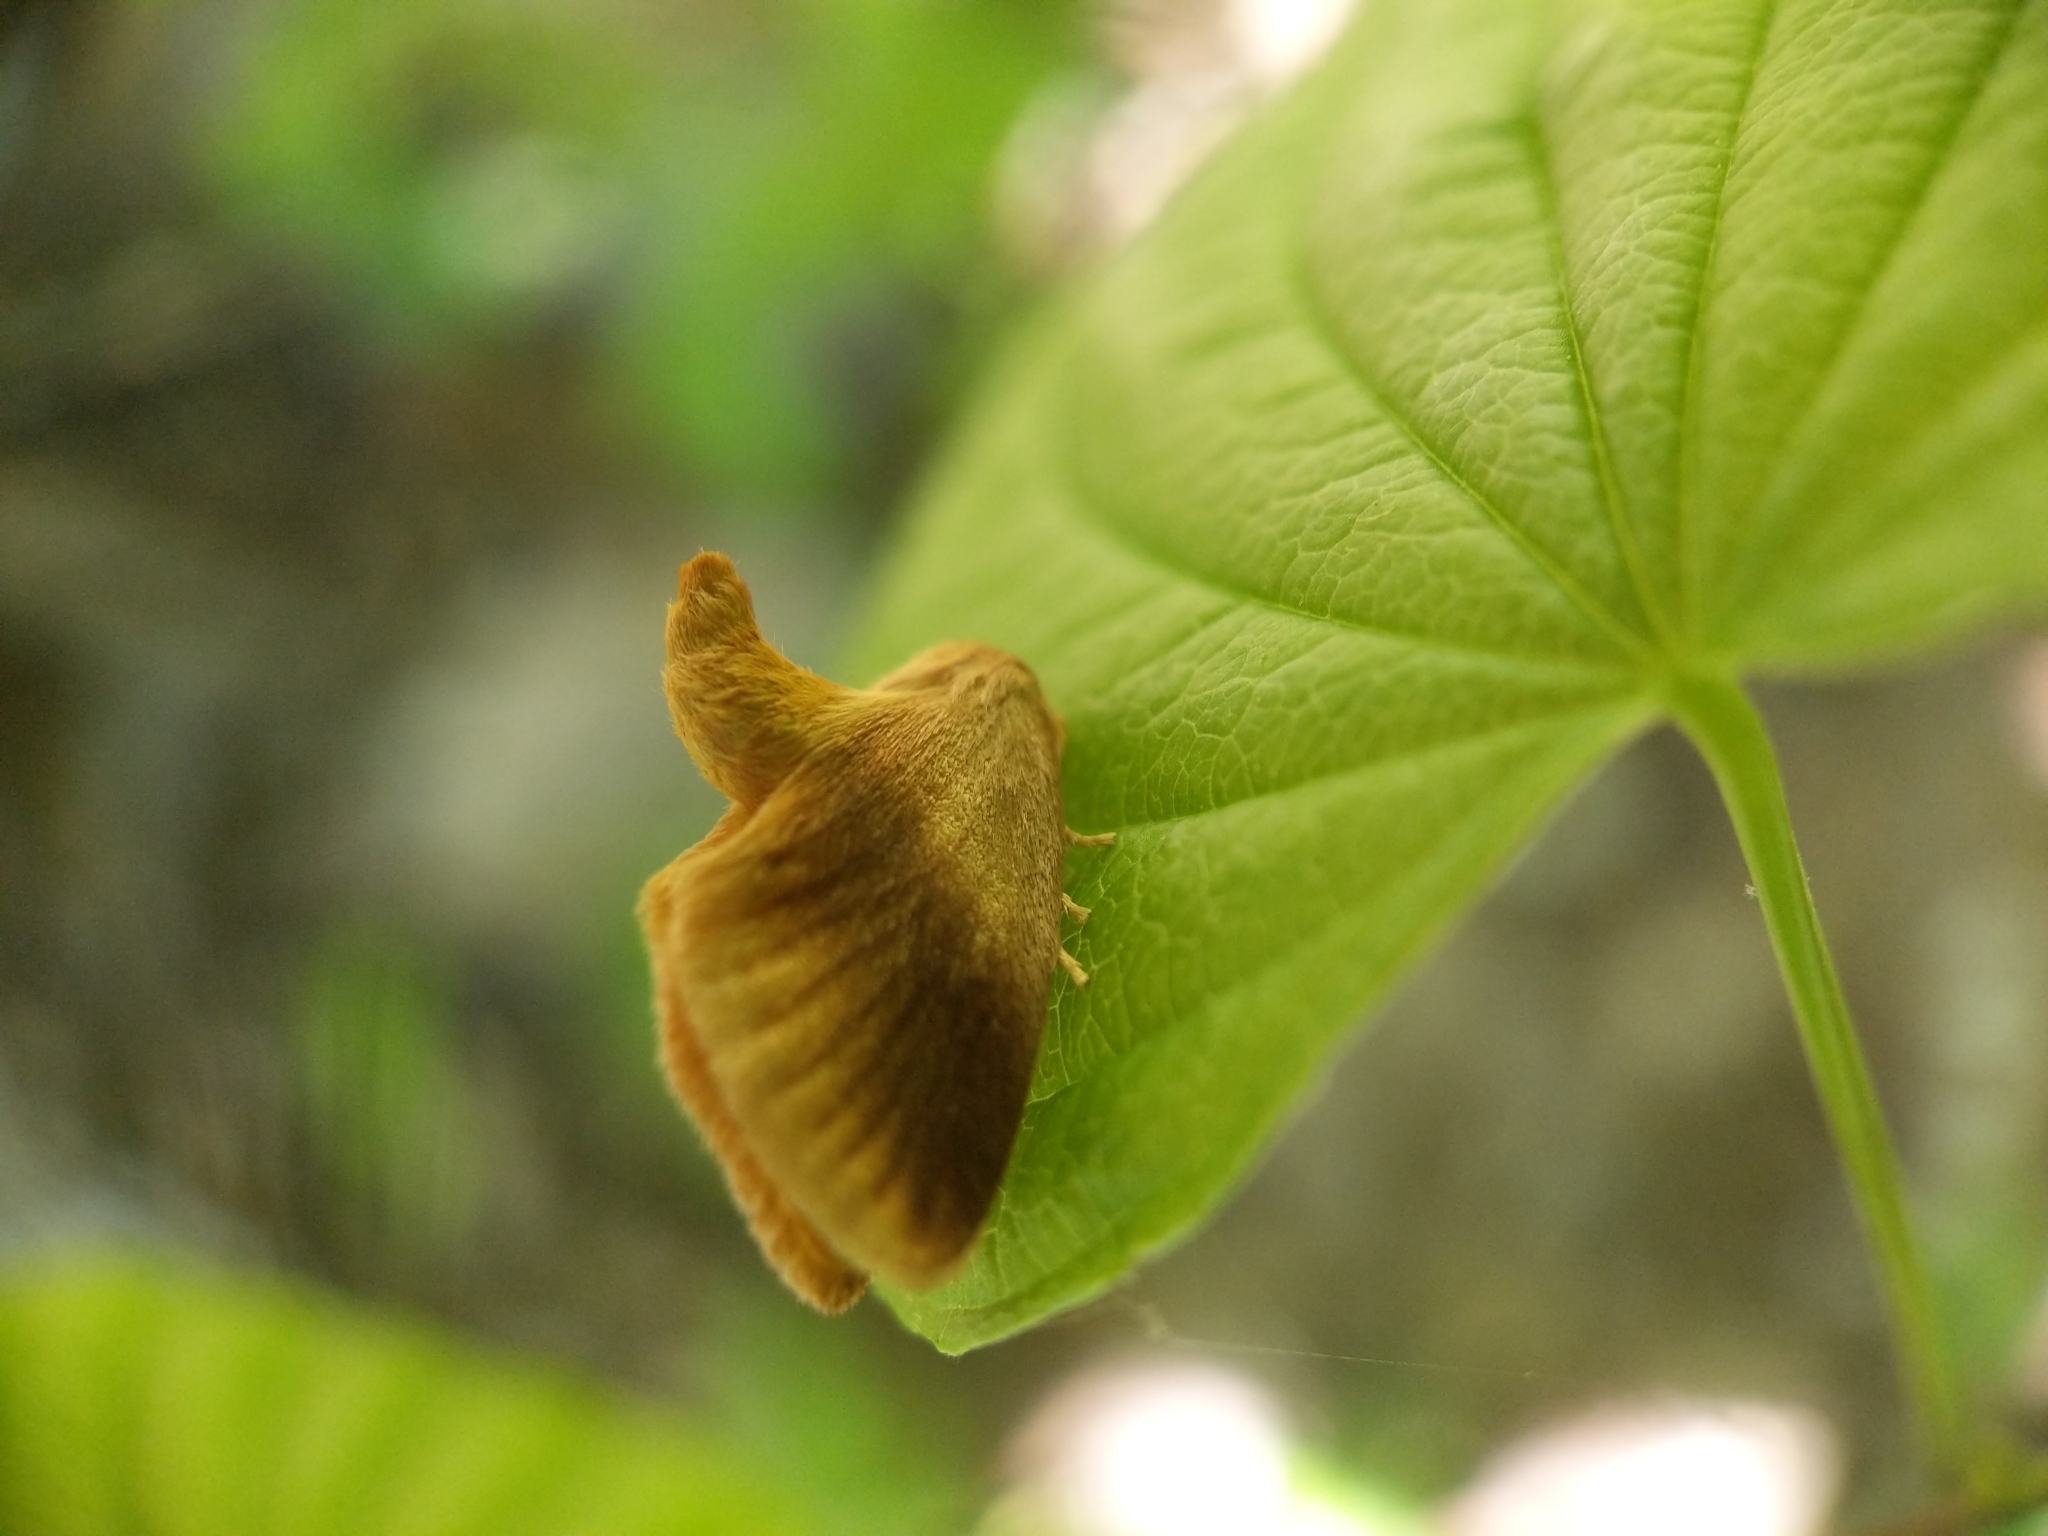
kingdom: Animalia
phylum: Arthropoda
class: Insecta
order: Lepidoptera
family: Limacodidae
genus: Tortricidia
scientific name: Tortricidia testacea
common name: Early button slug moth
